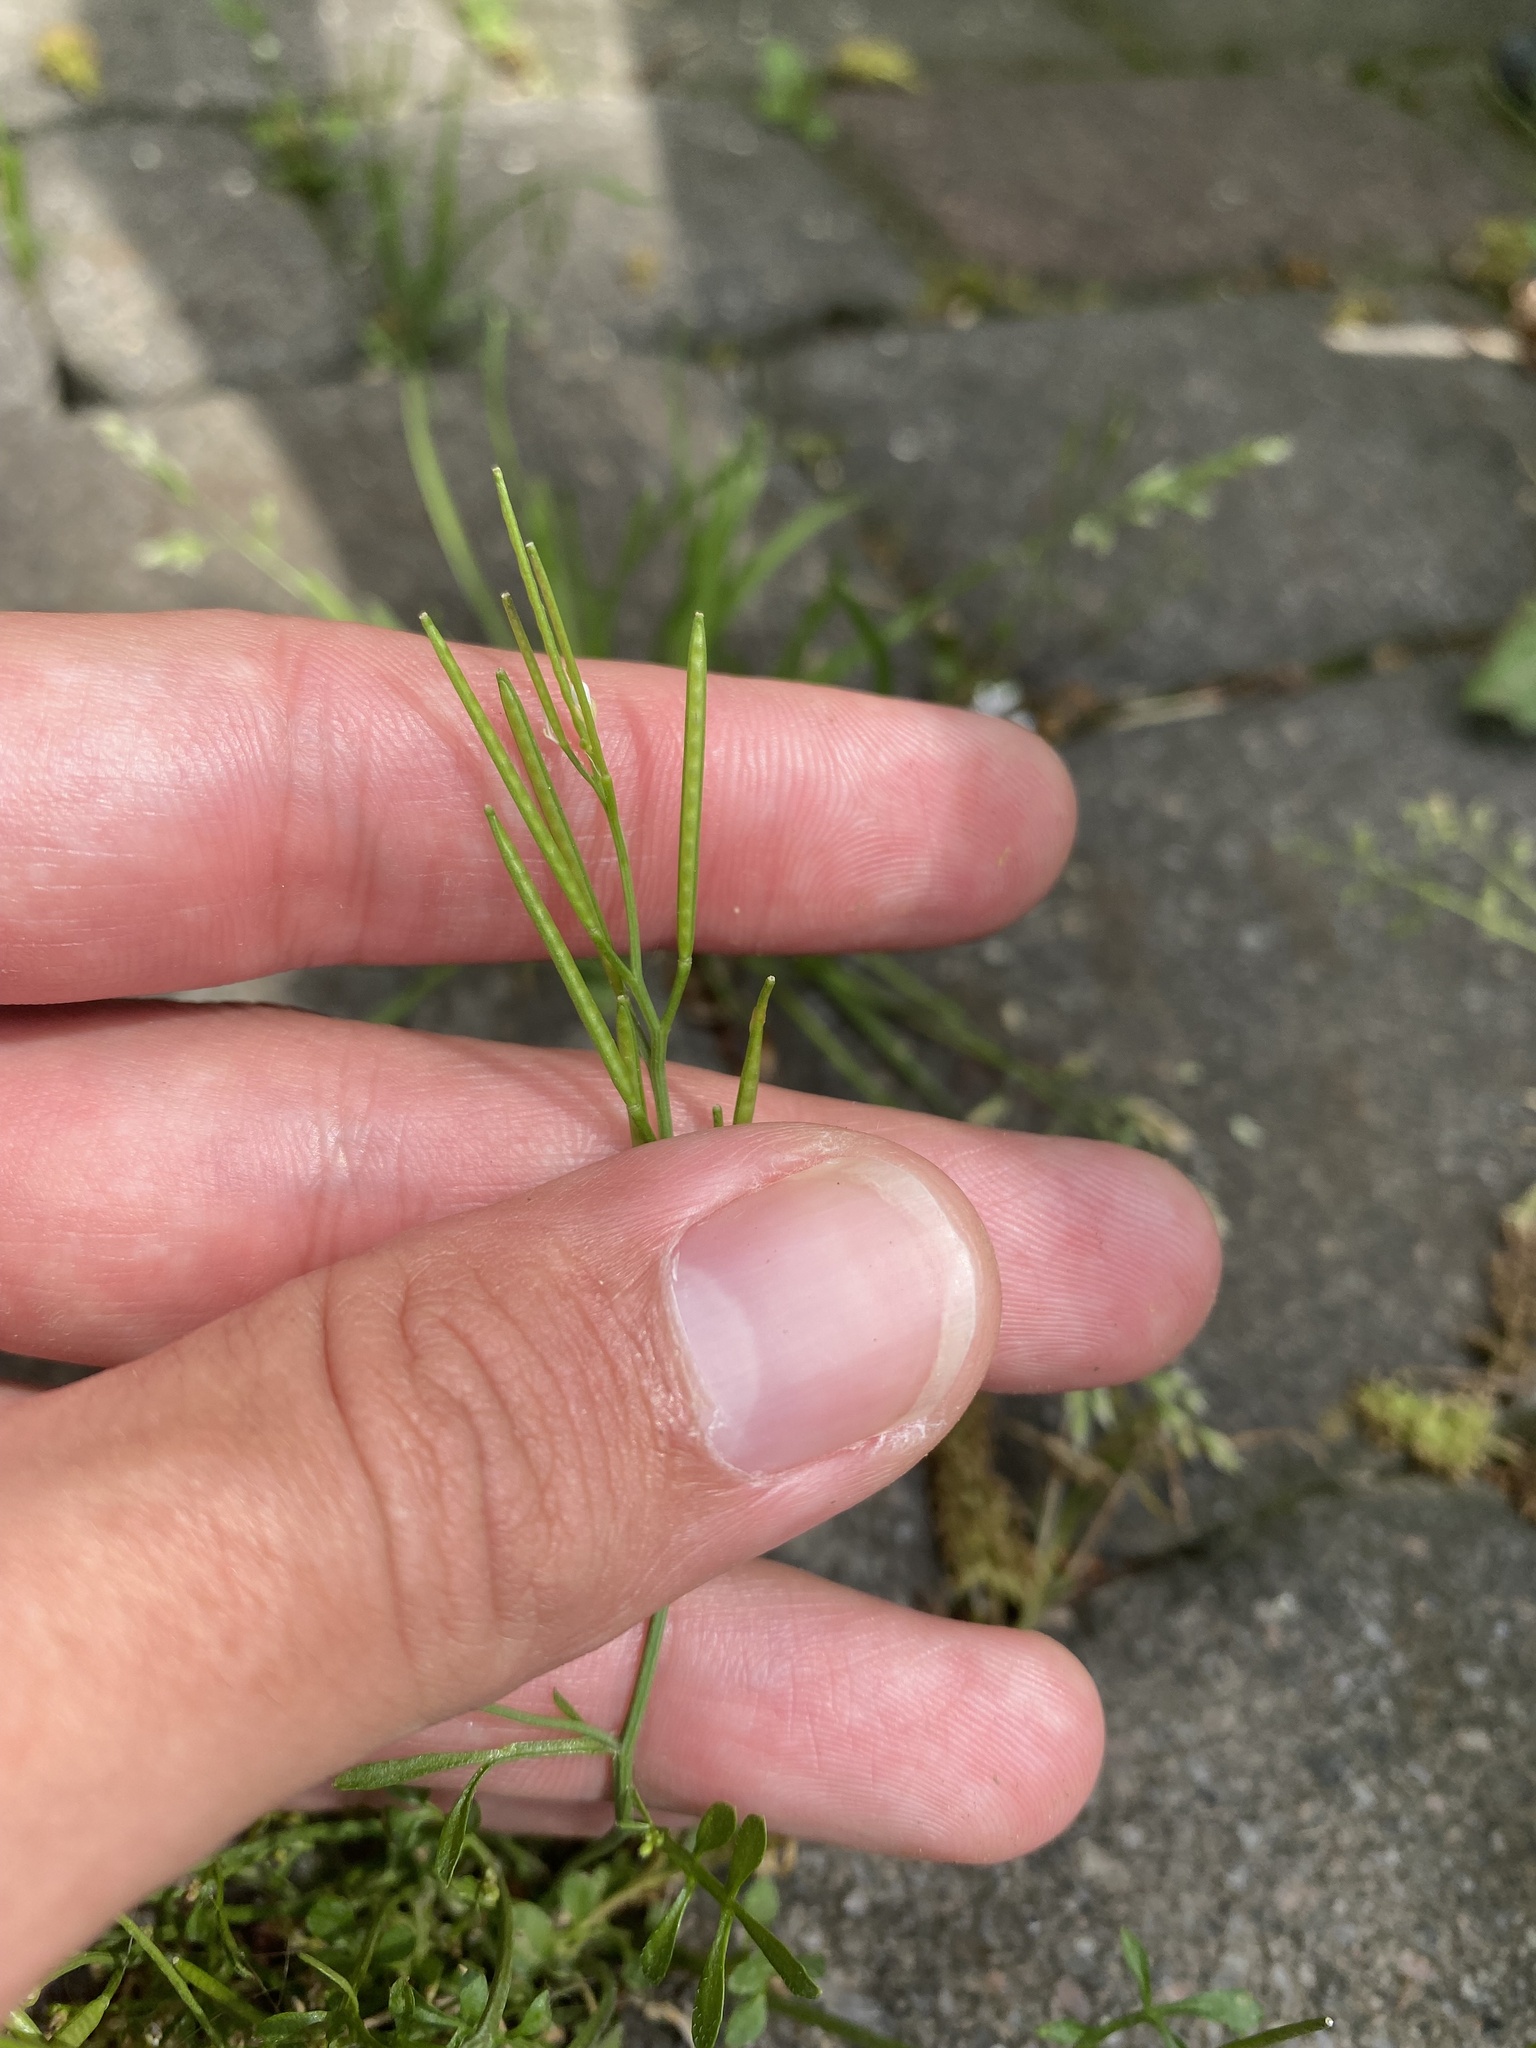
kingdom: Plantae
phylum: Tracheophyta
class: Magnoliopsida
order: Brassicales
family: Brassicaceae
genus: Cardamine
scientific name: Cardamine hirsuta
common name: Hairy bittercress
